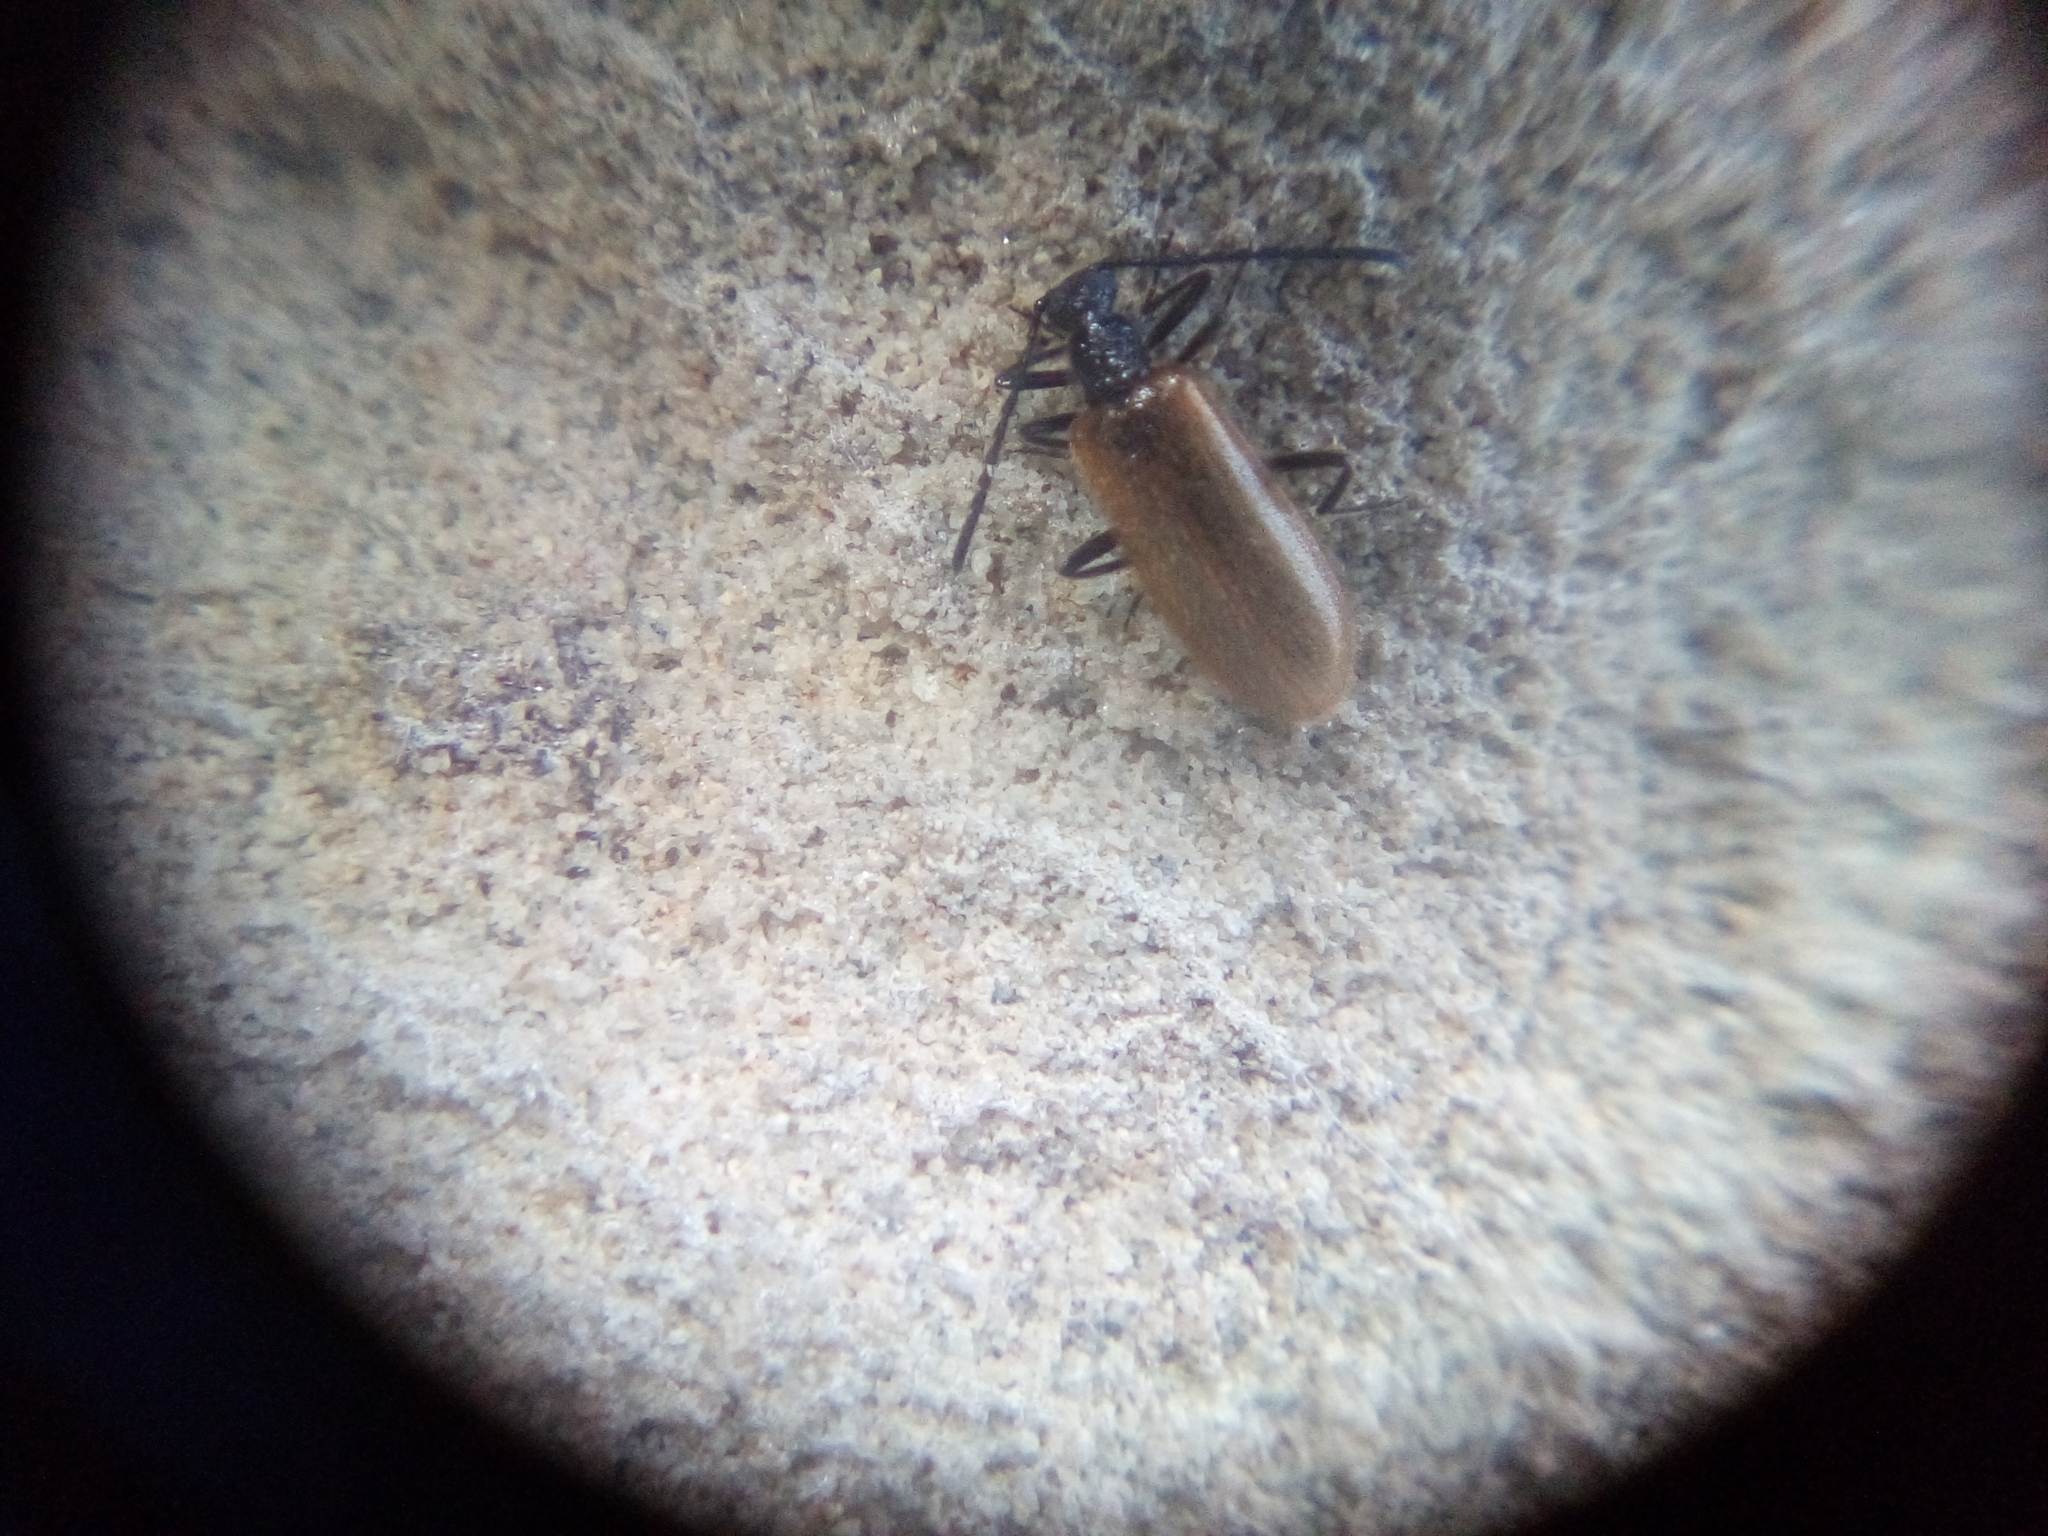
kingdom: Animalia
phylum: Arthropoda
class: Insecta
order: Coleoptera
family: Tenebrionidae
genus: Lagria
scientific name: Lagria hirta
